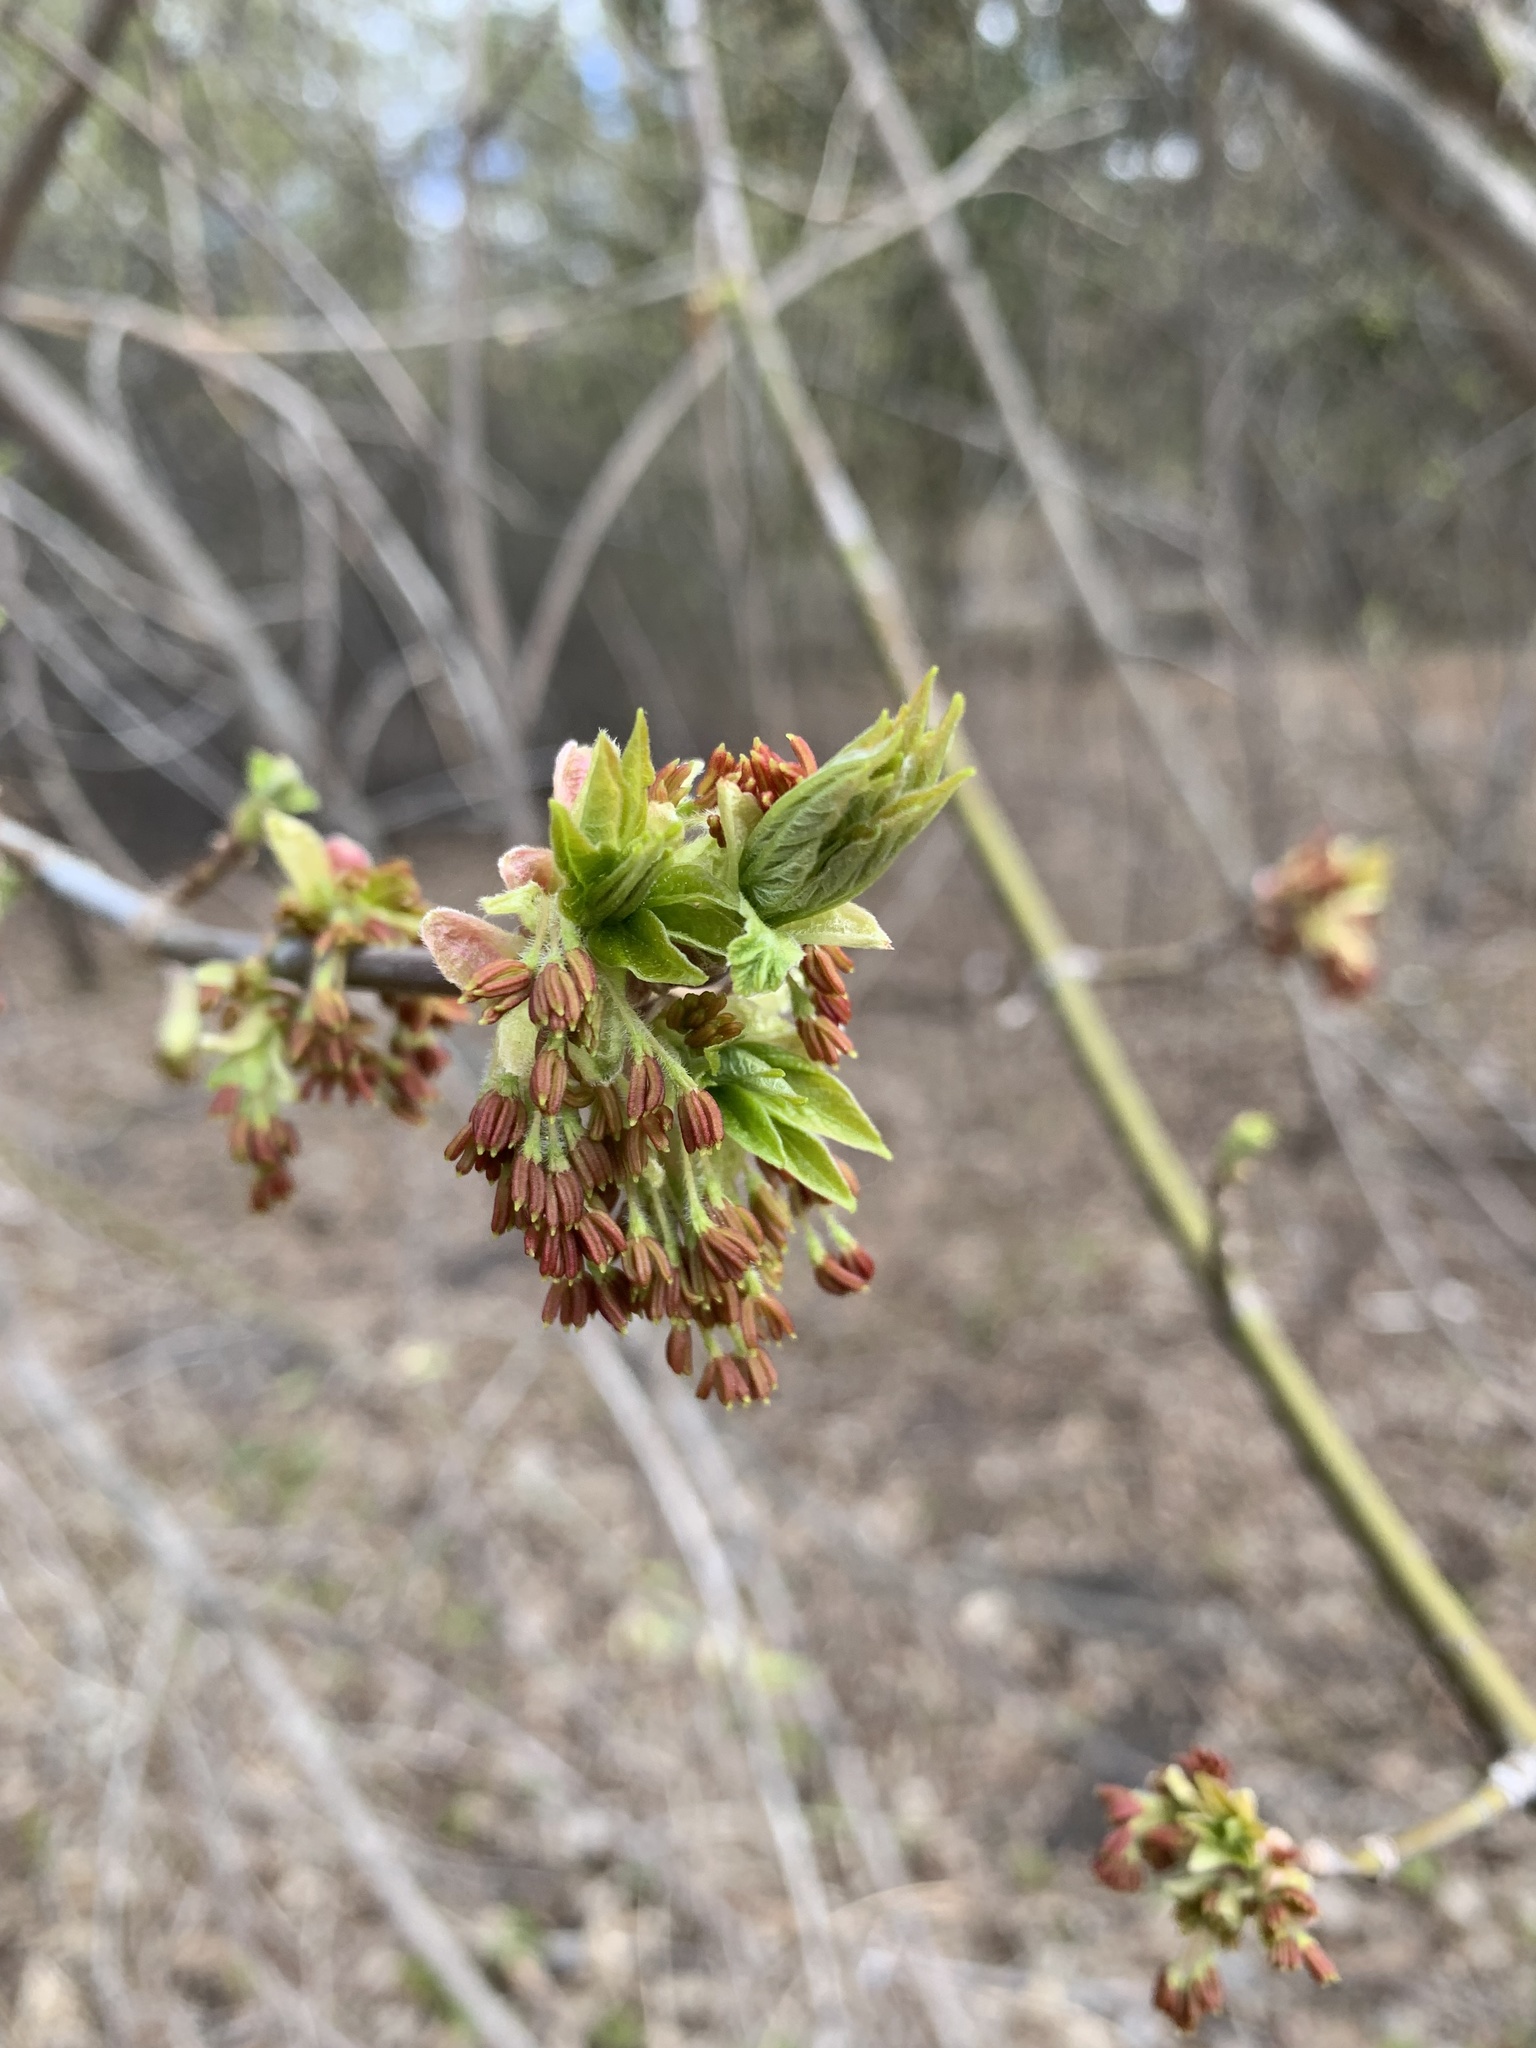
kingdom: Plantae
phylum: Tracheophyta
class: Magnoliopsida
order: Sapindales
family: Sapindaceae
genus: Acer
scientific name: Acer negundo
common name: Ashleaf maple
